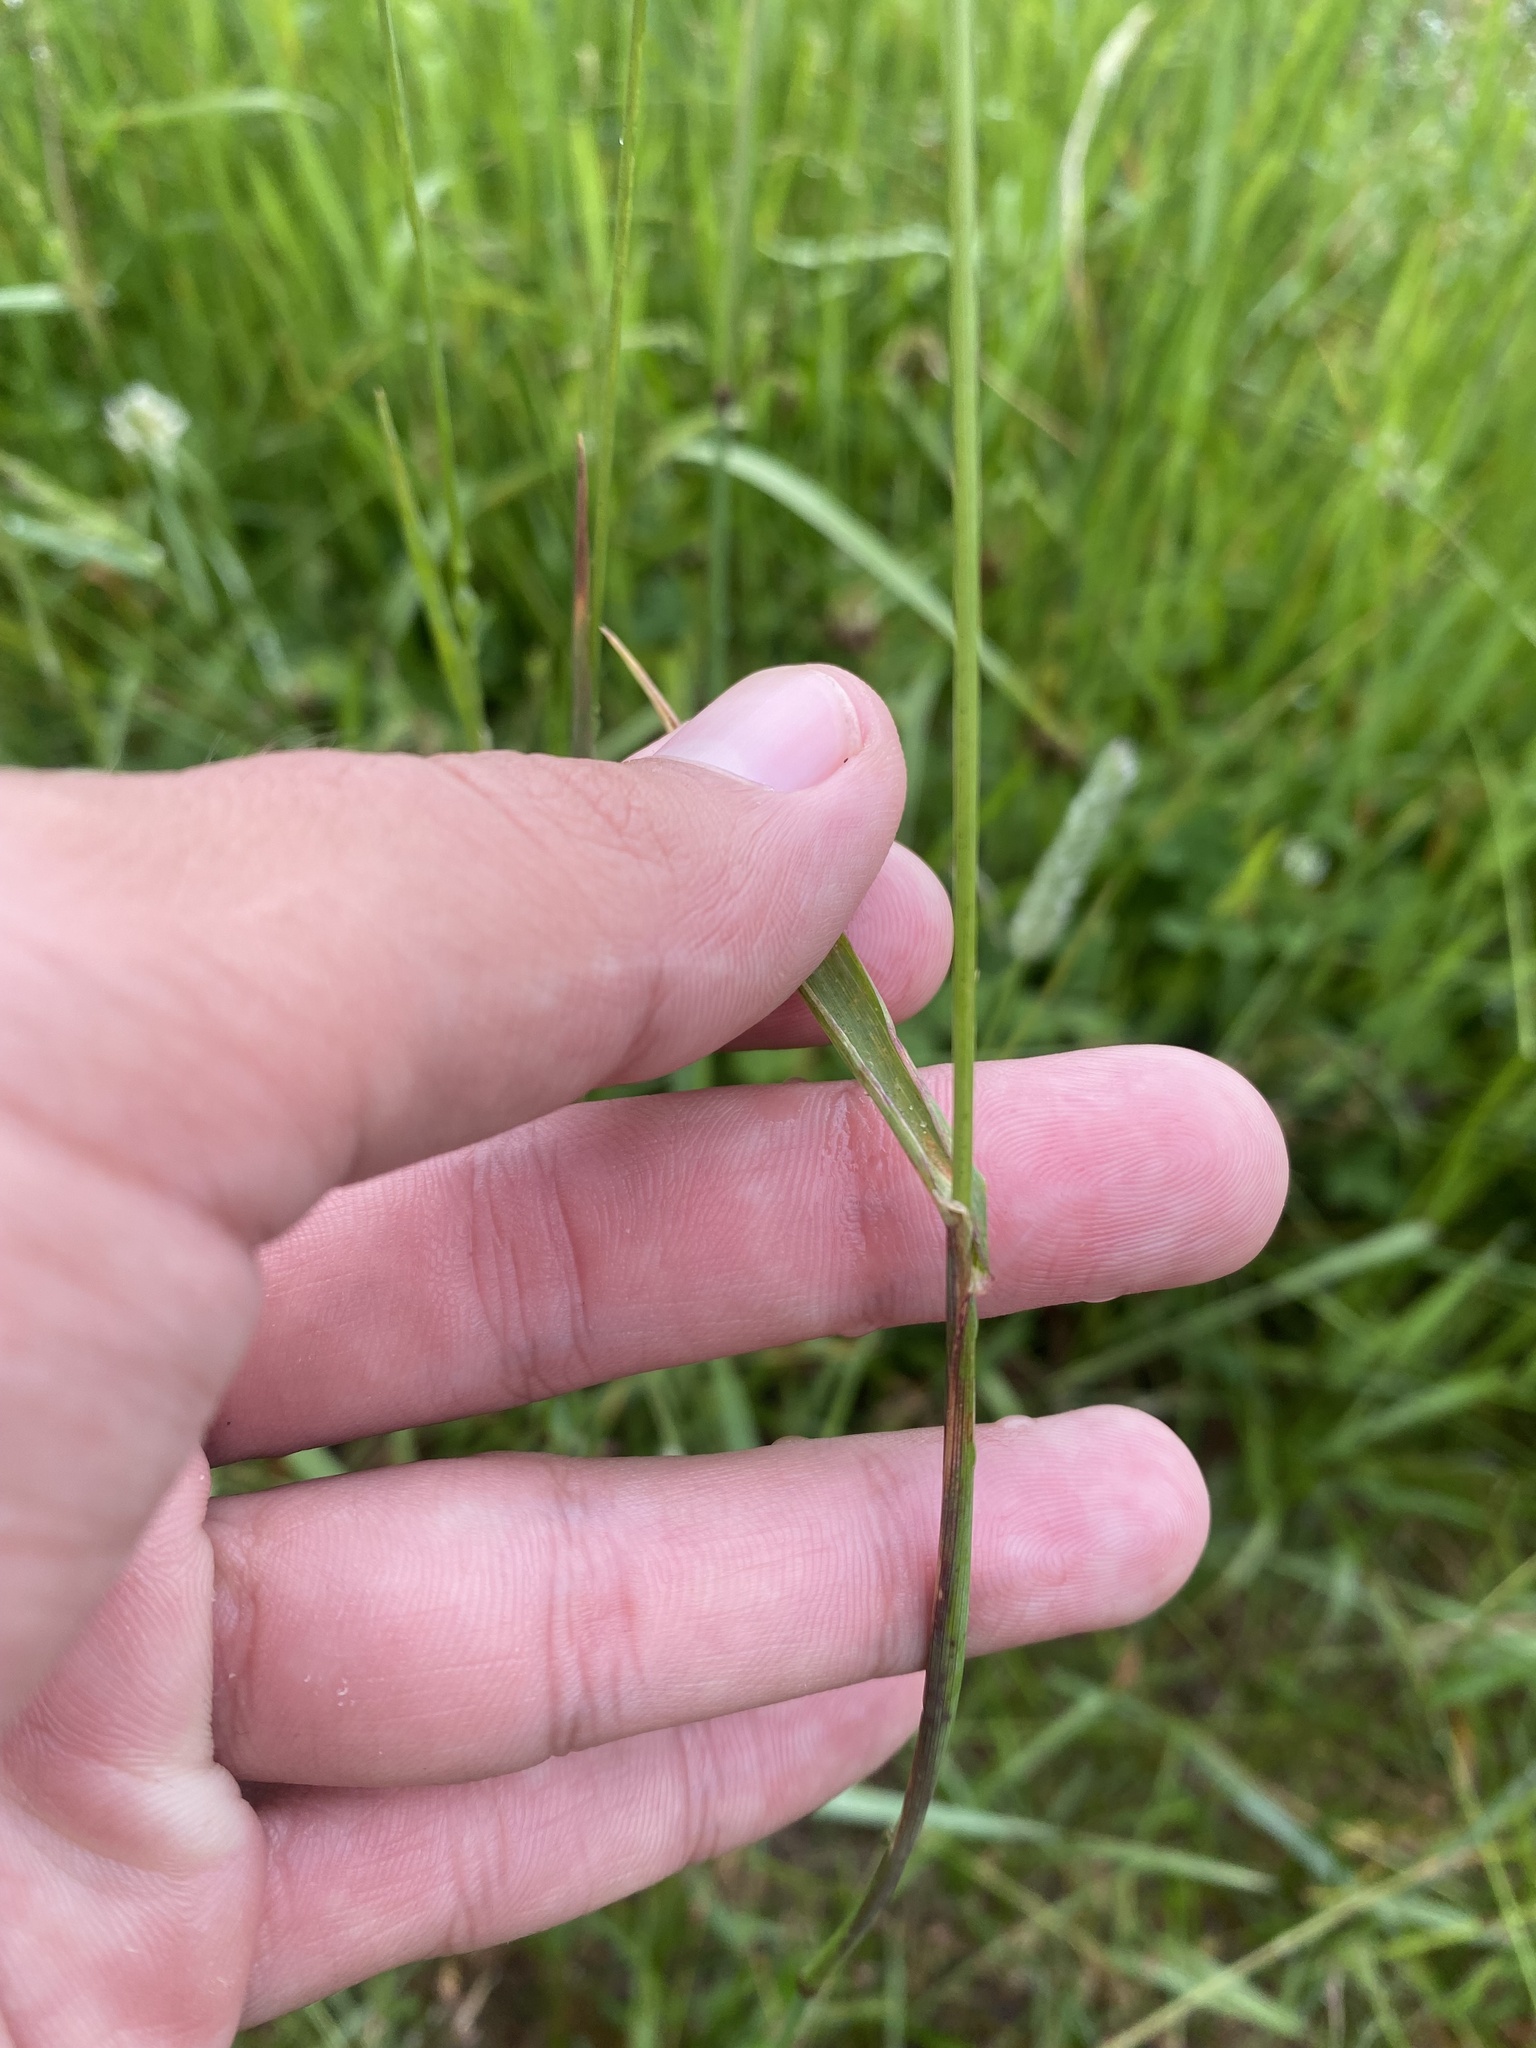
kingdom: Plantae
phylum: Tracheophyta
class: Liliopsida
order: Poales
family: Poaceae
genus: Phleum
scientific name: Phleum pratense
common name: Timothy grass
